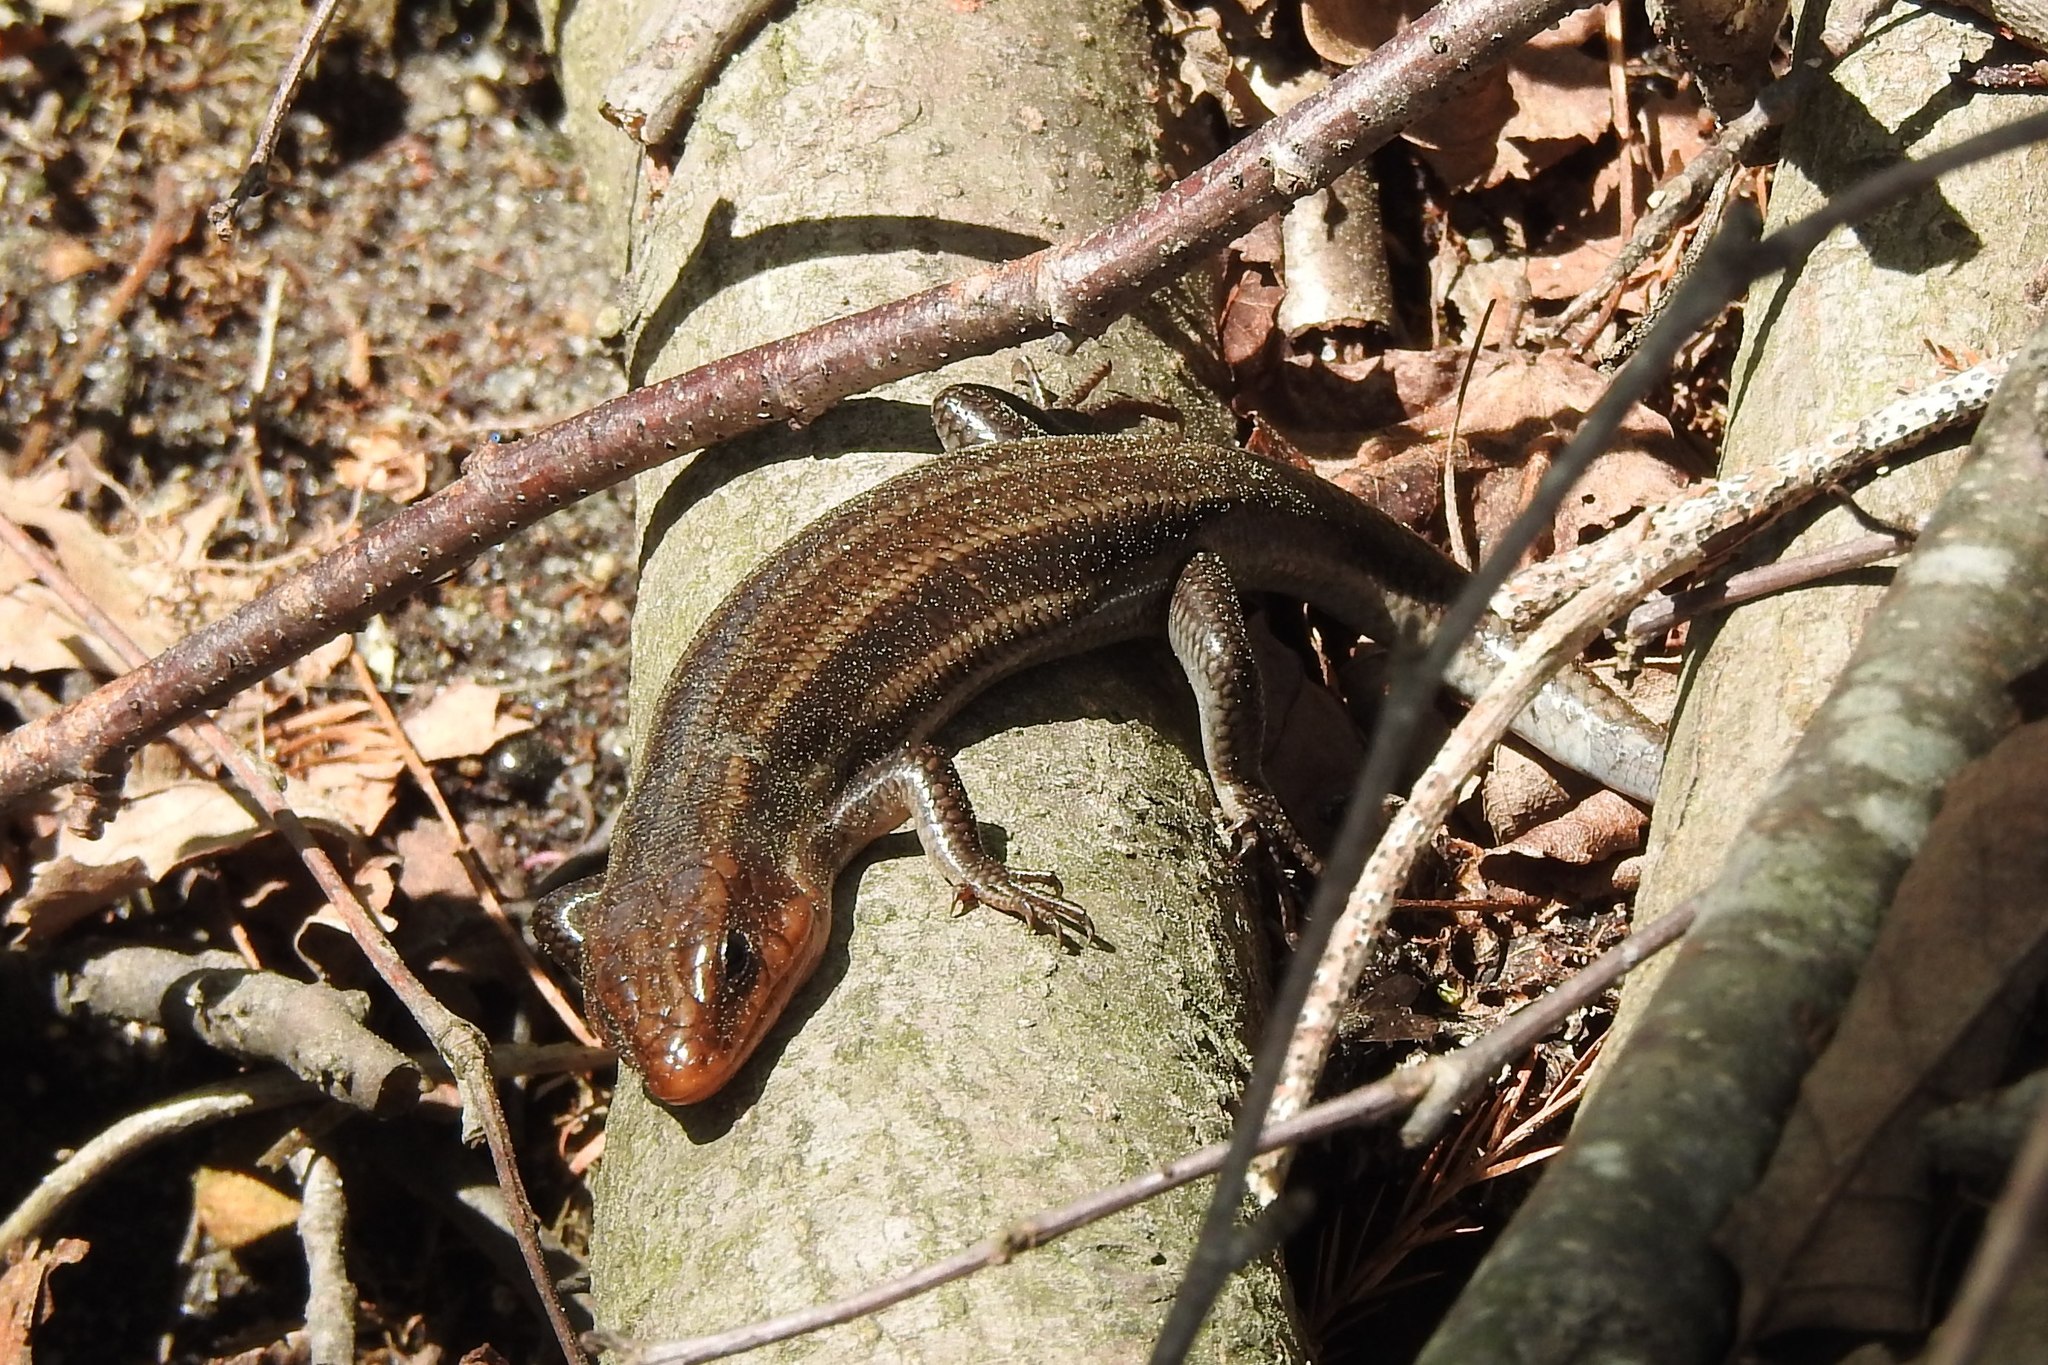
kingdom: Animalia
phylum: Chordata
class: Squamata
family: Scincidae
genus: Plestiodon
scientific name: Plestiodon fasciatus
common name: Five-lined skink
